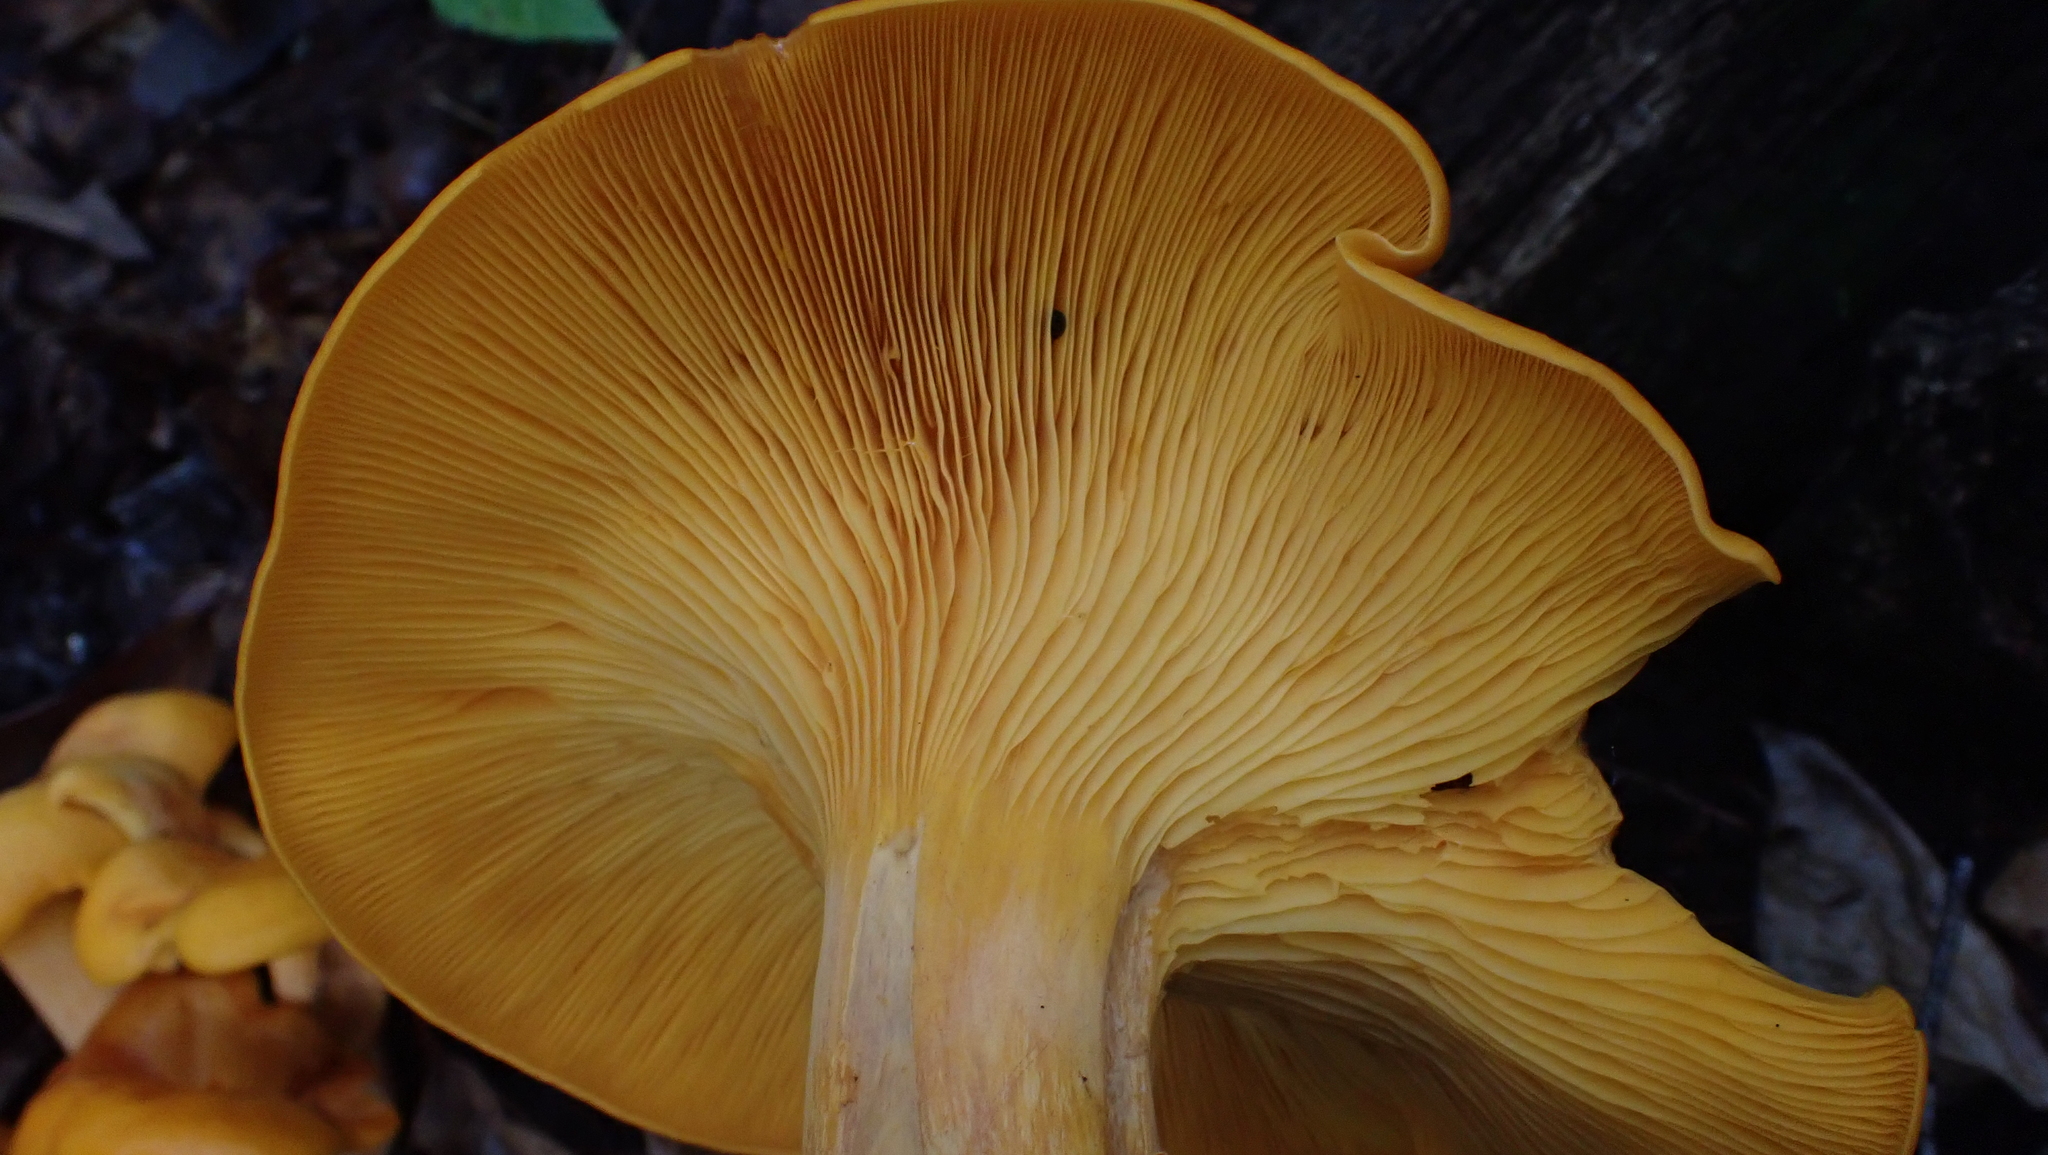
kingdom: Fungi
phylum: Basidiomycota
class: Agaricomycetes
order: Agaricales
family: Omphalotaceae
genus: Omphalotus
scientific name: Omphalotus illudens
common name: Jack o lantern
